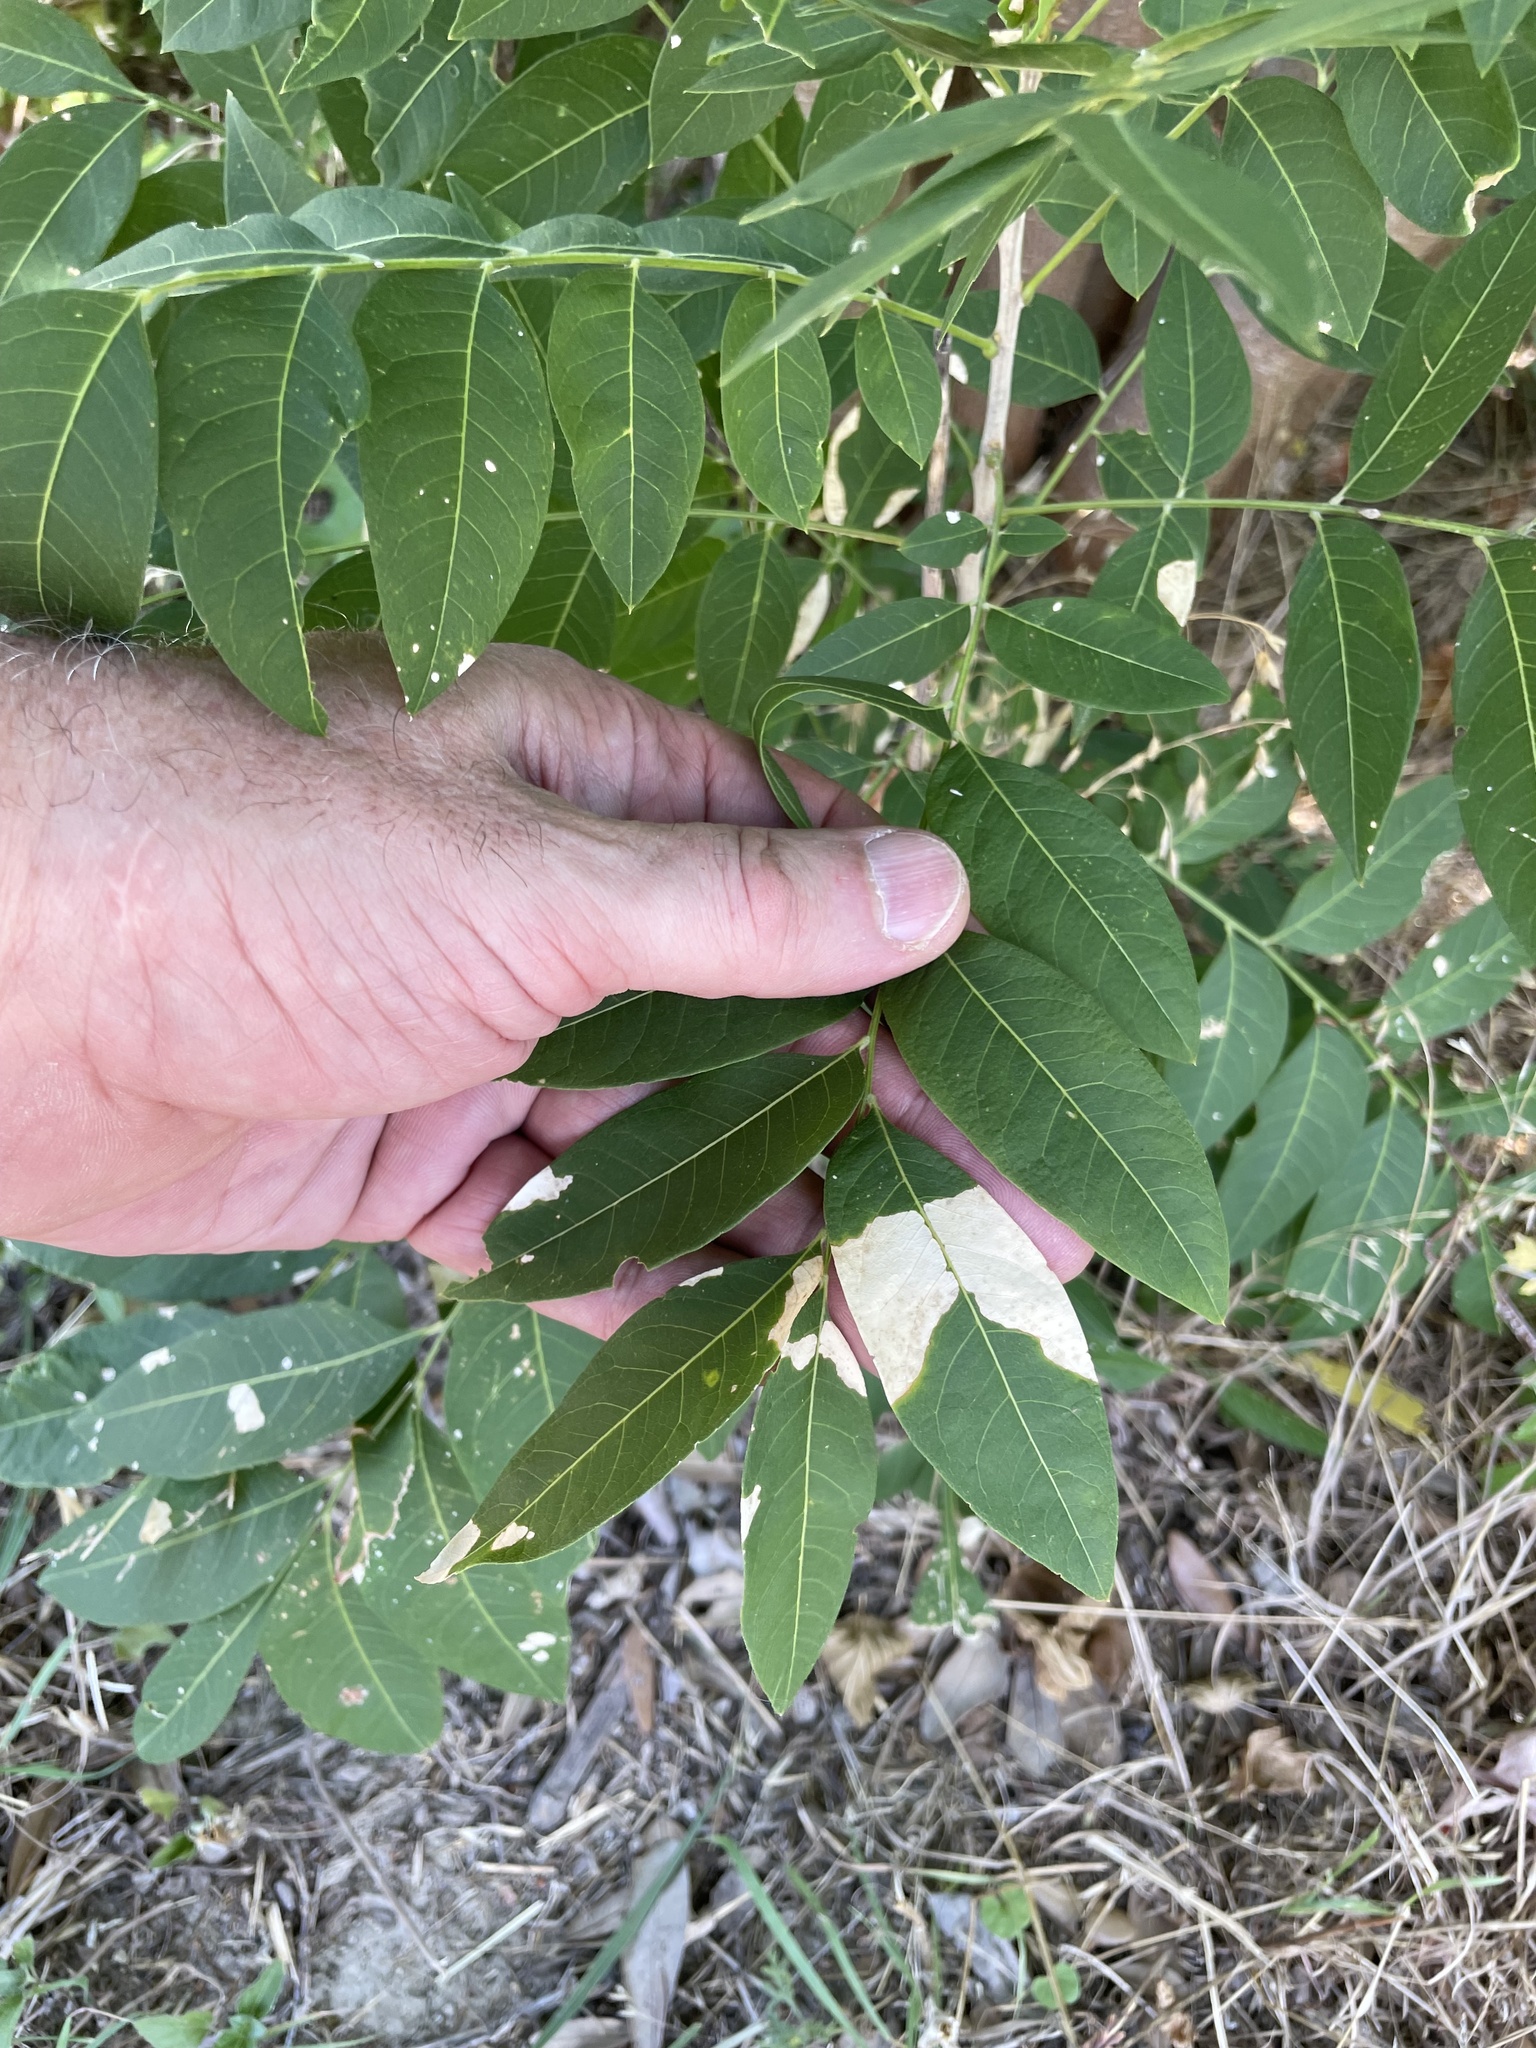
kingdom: Plantae
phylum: Tracheophyta
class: Magnoliopsida
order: Sapindales
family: Sapindaceae
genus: Sapindus
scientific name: Sapindus drummondii
